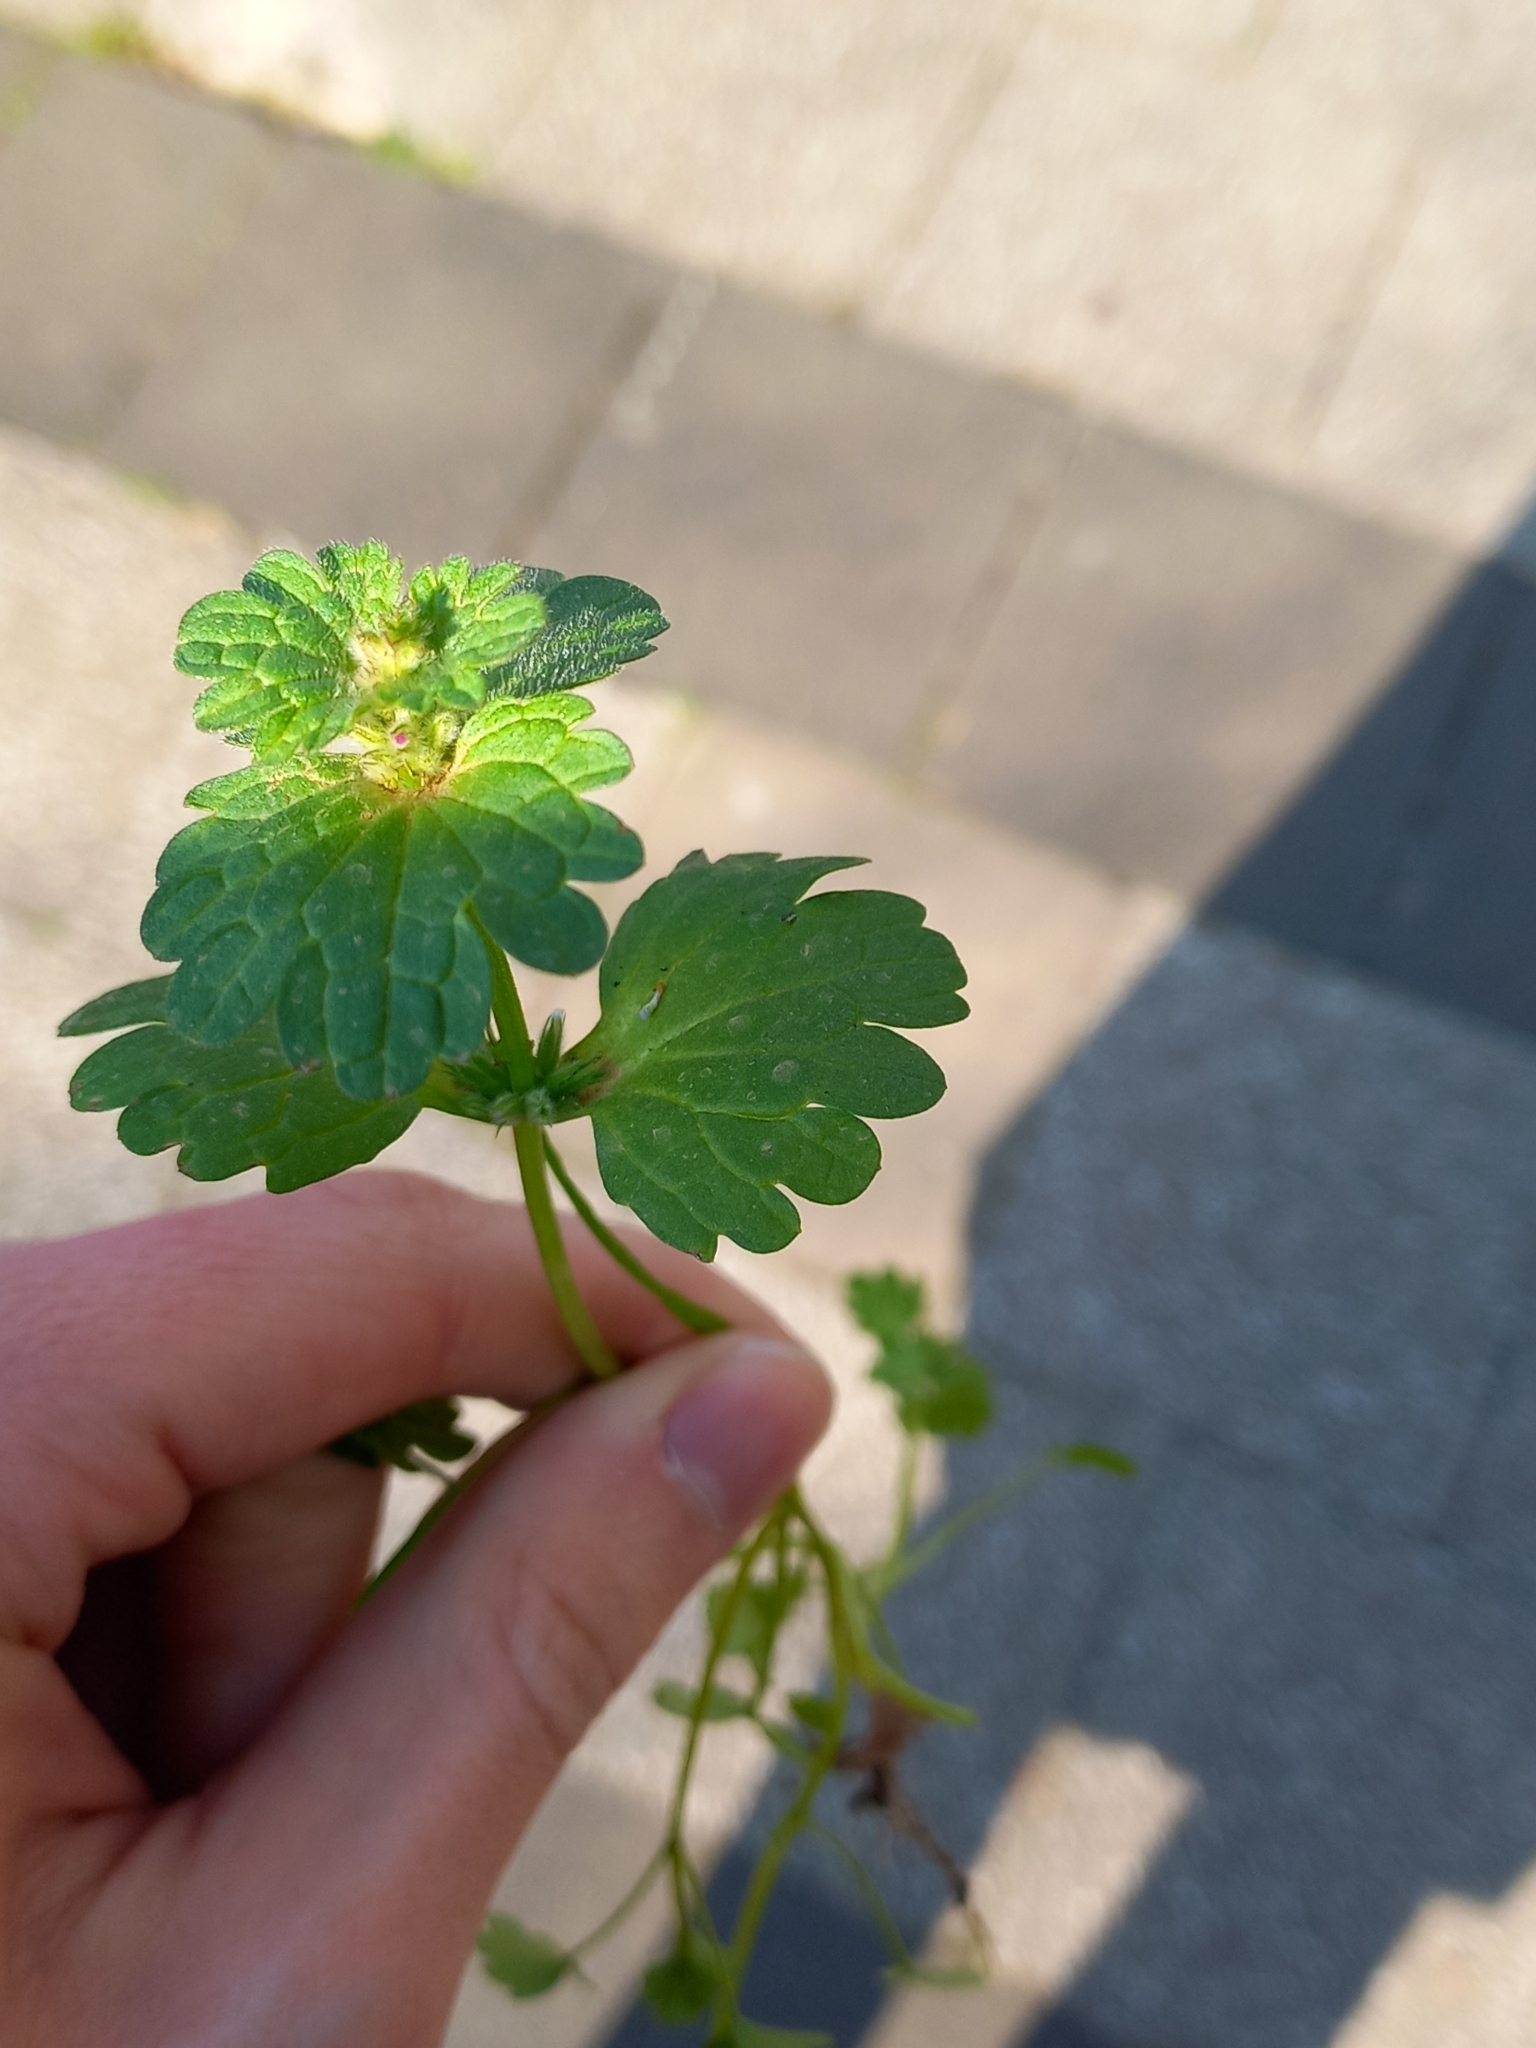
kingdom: Plantae
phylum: Tracheophyta
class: Magnoliopsida
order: Lamiales
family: Lamiaceae
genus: Lamium
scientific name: Lamium amplexicaule
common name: Henbit dead-nettle
